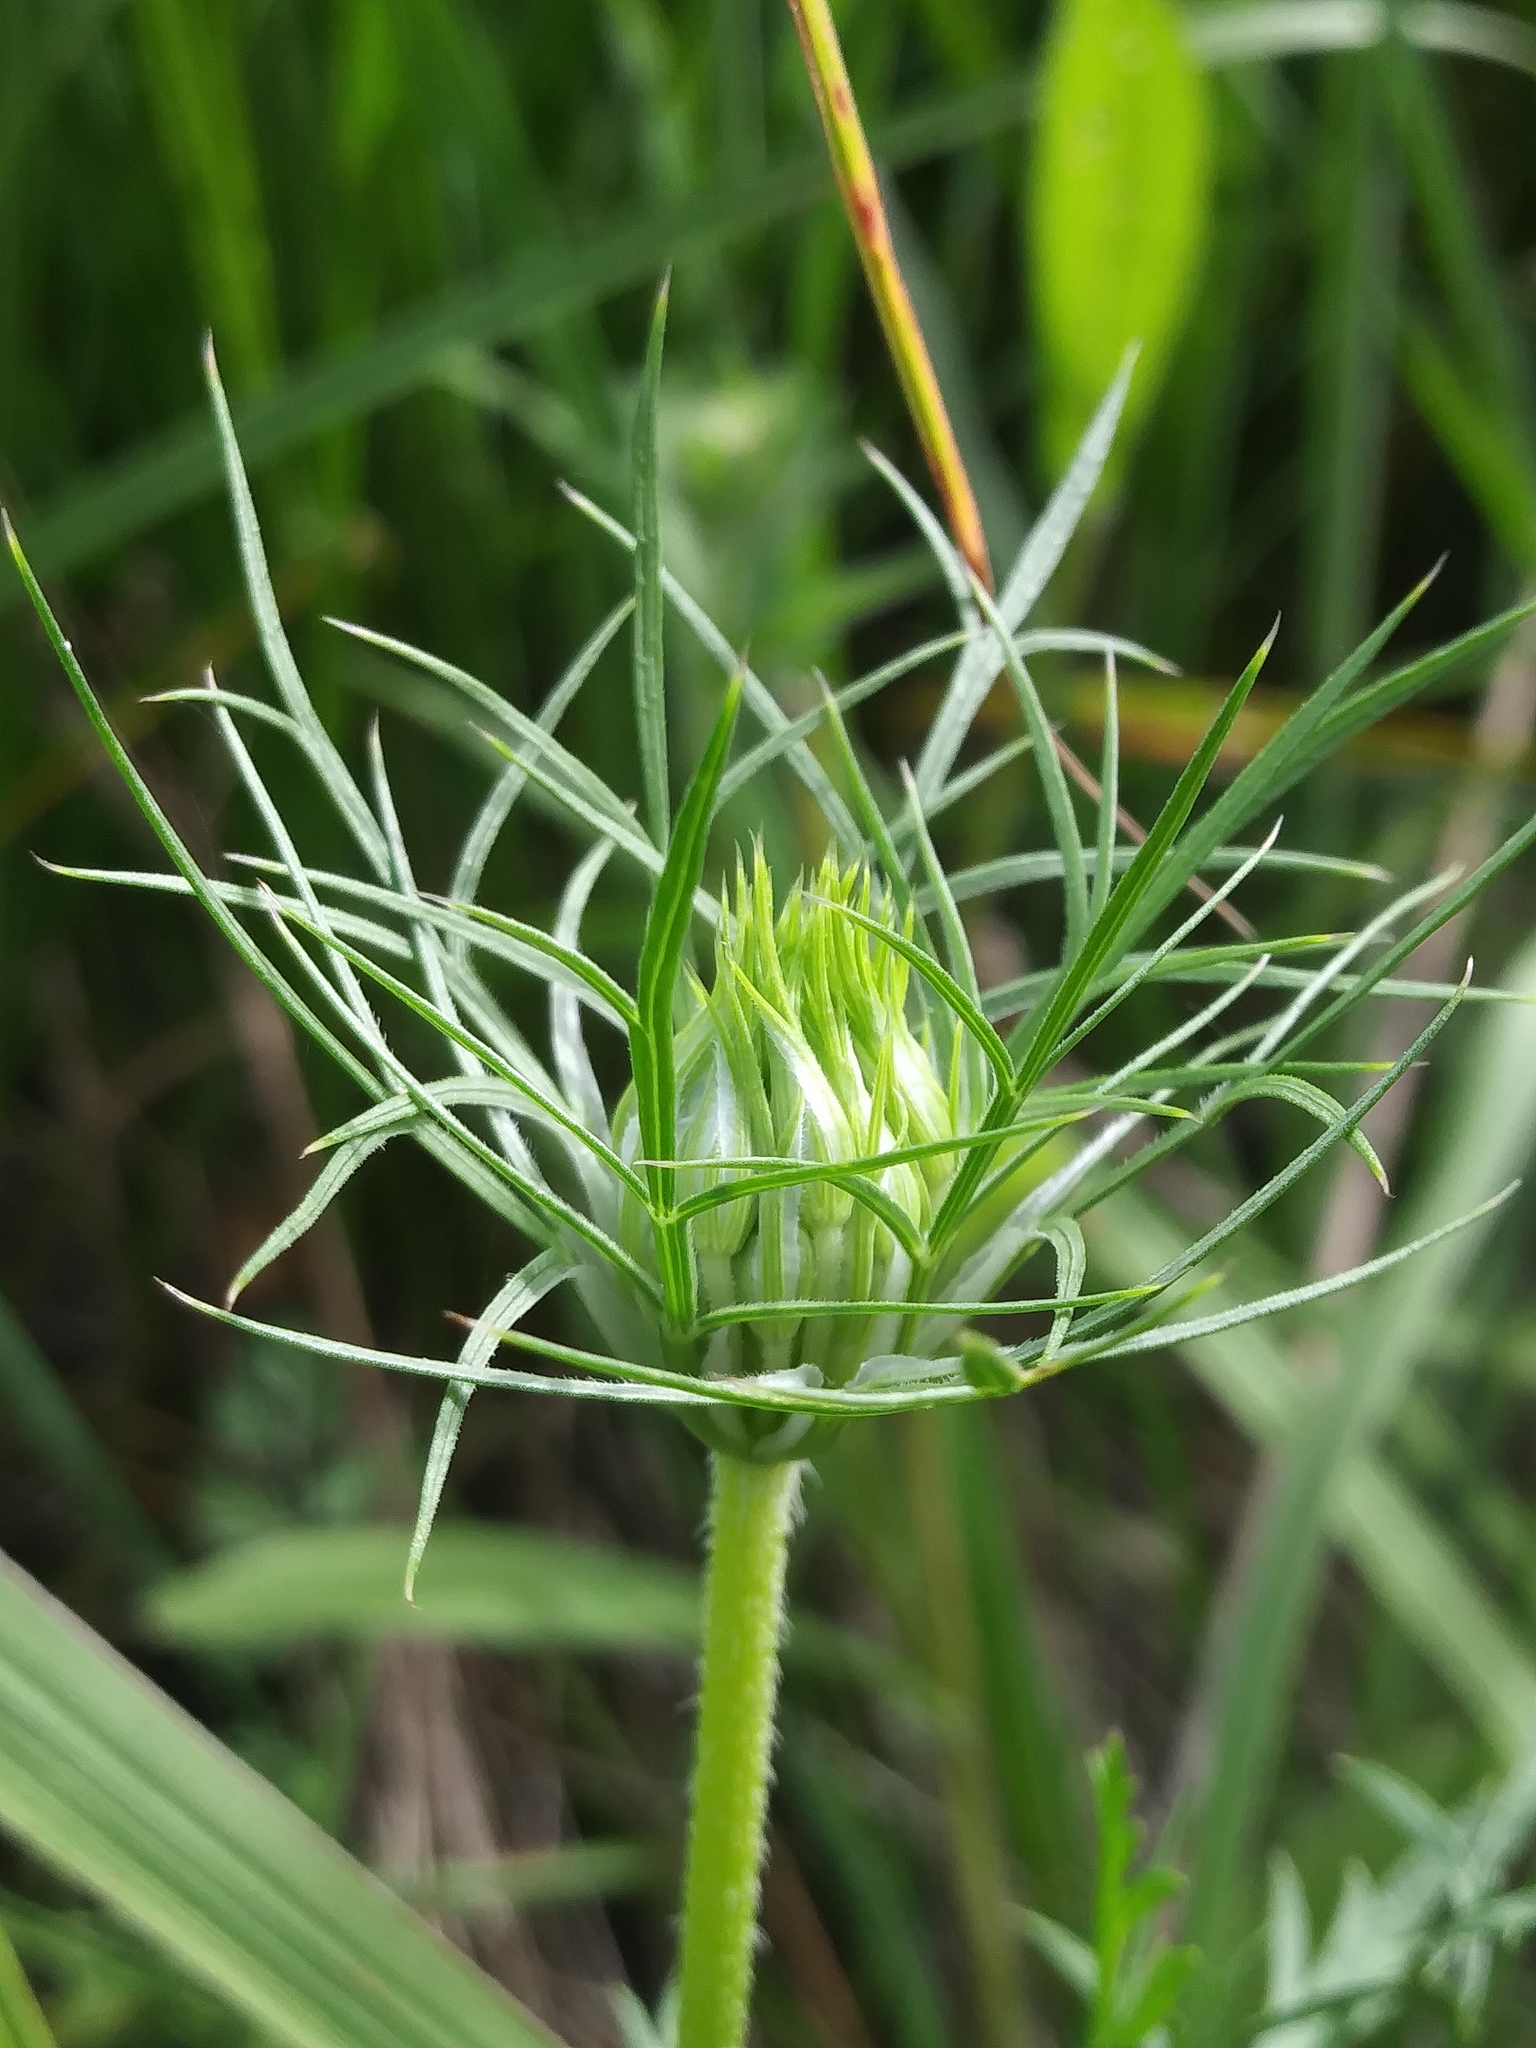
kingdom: Plantae
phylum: Tracheophyta
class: Magnoliopsida
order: Apiales
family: Apiaceae
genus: Daucus
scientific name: Daucus carota
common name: Wild carrot
